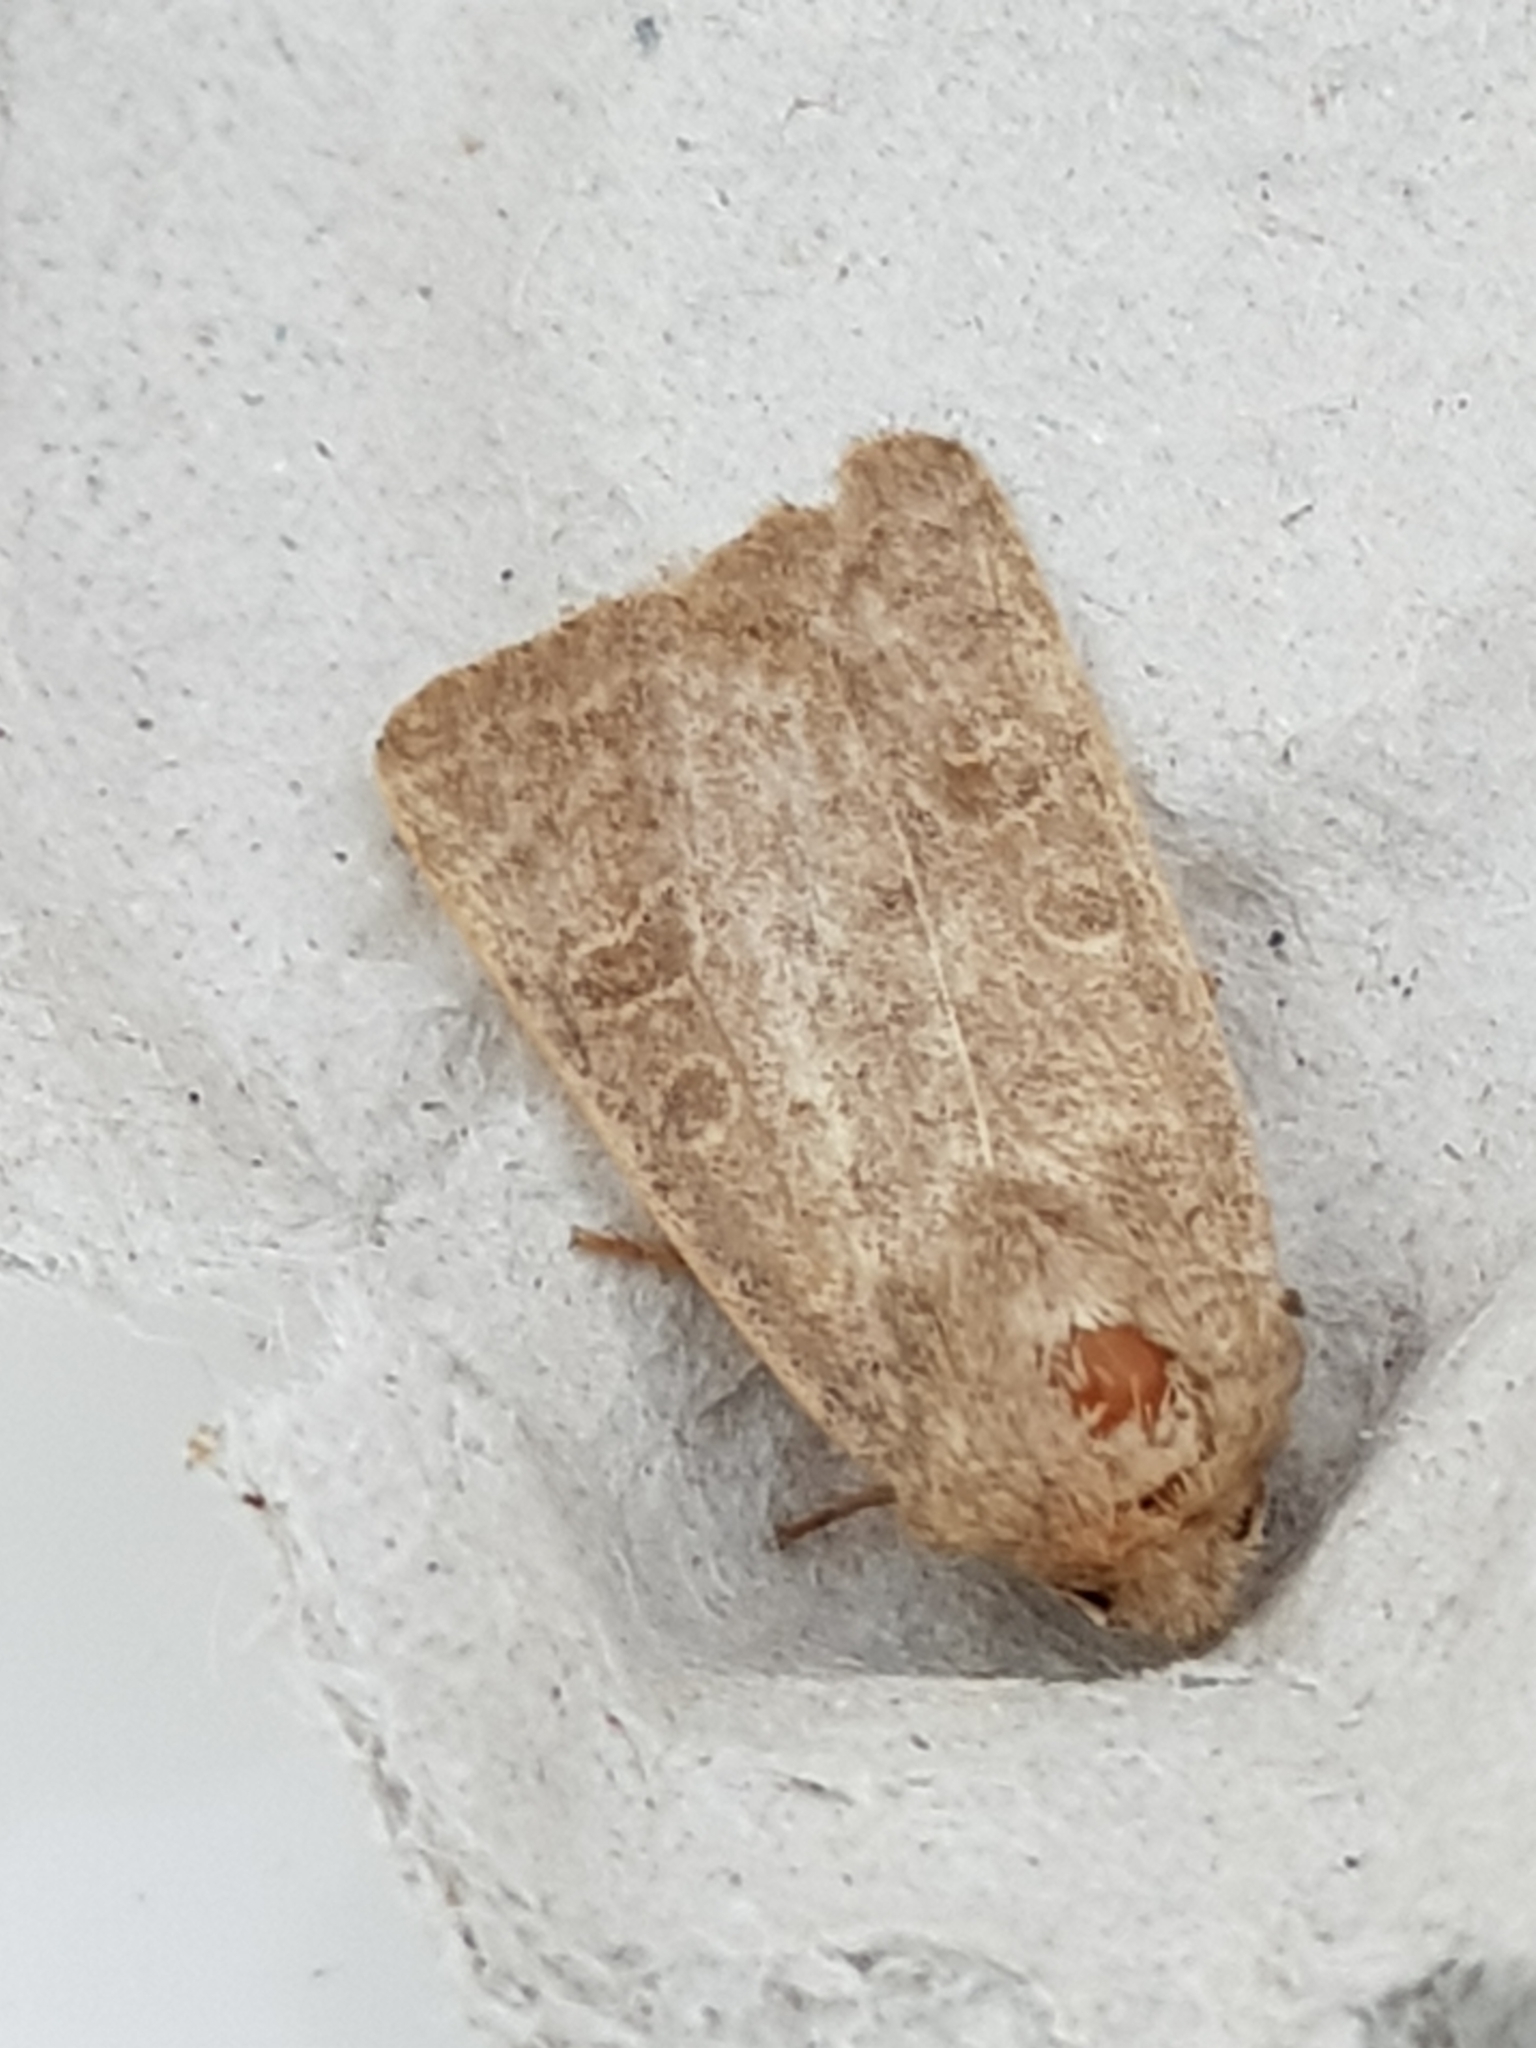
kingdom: Animalia
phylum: Arthropoda
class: Insecta
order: Lepidoptera
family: Noctuidae
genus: Hoplodrina
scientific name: Hoplodrina ambigua
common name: Vine's rustic
